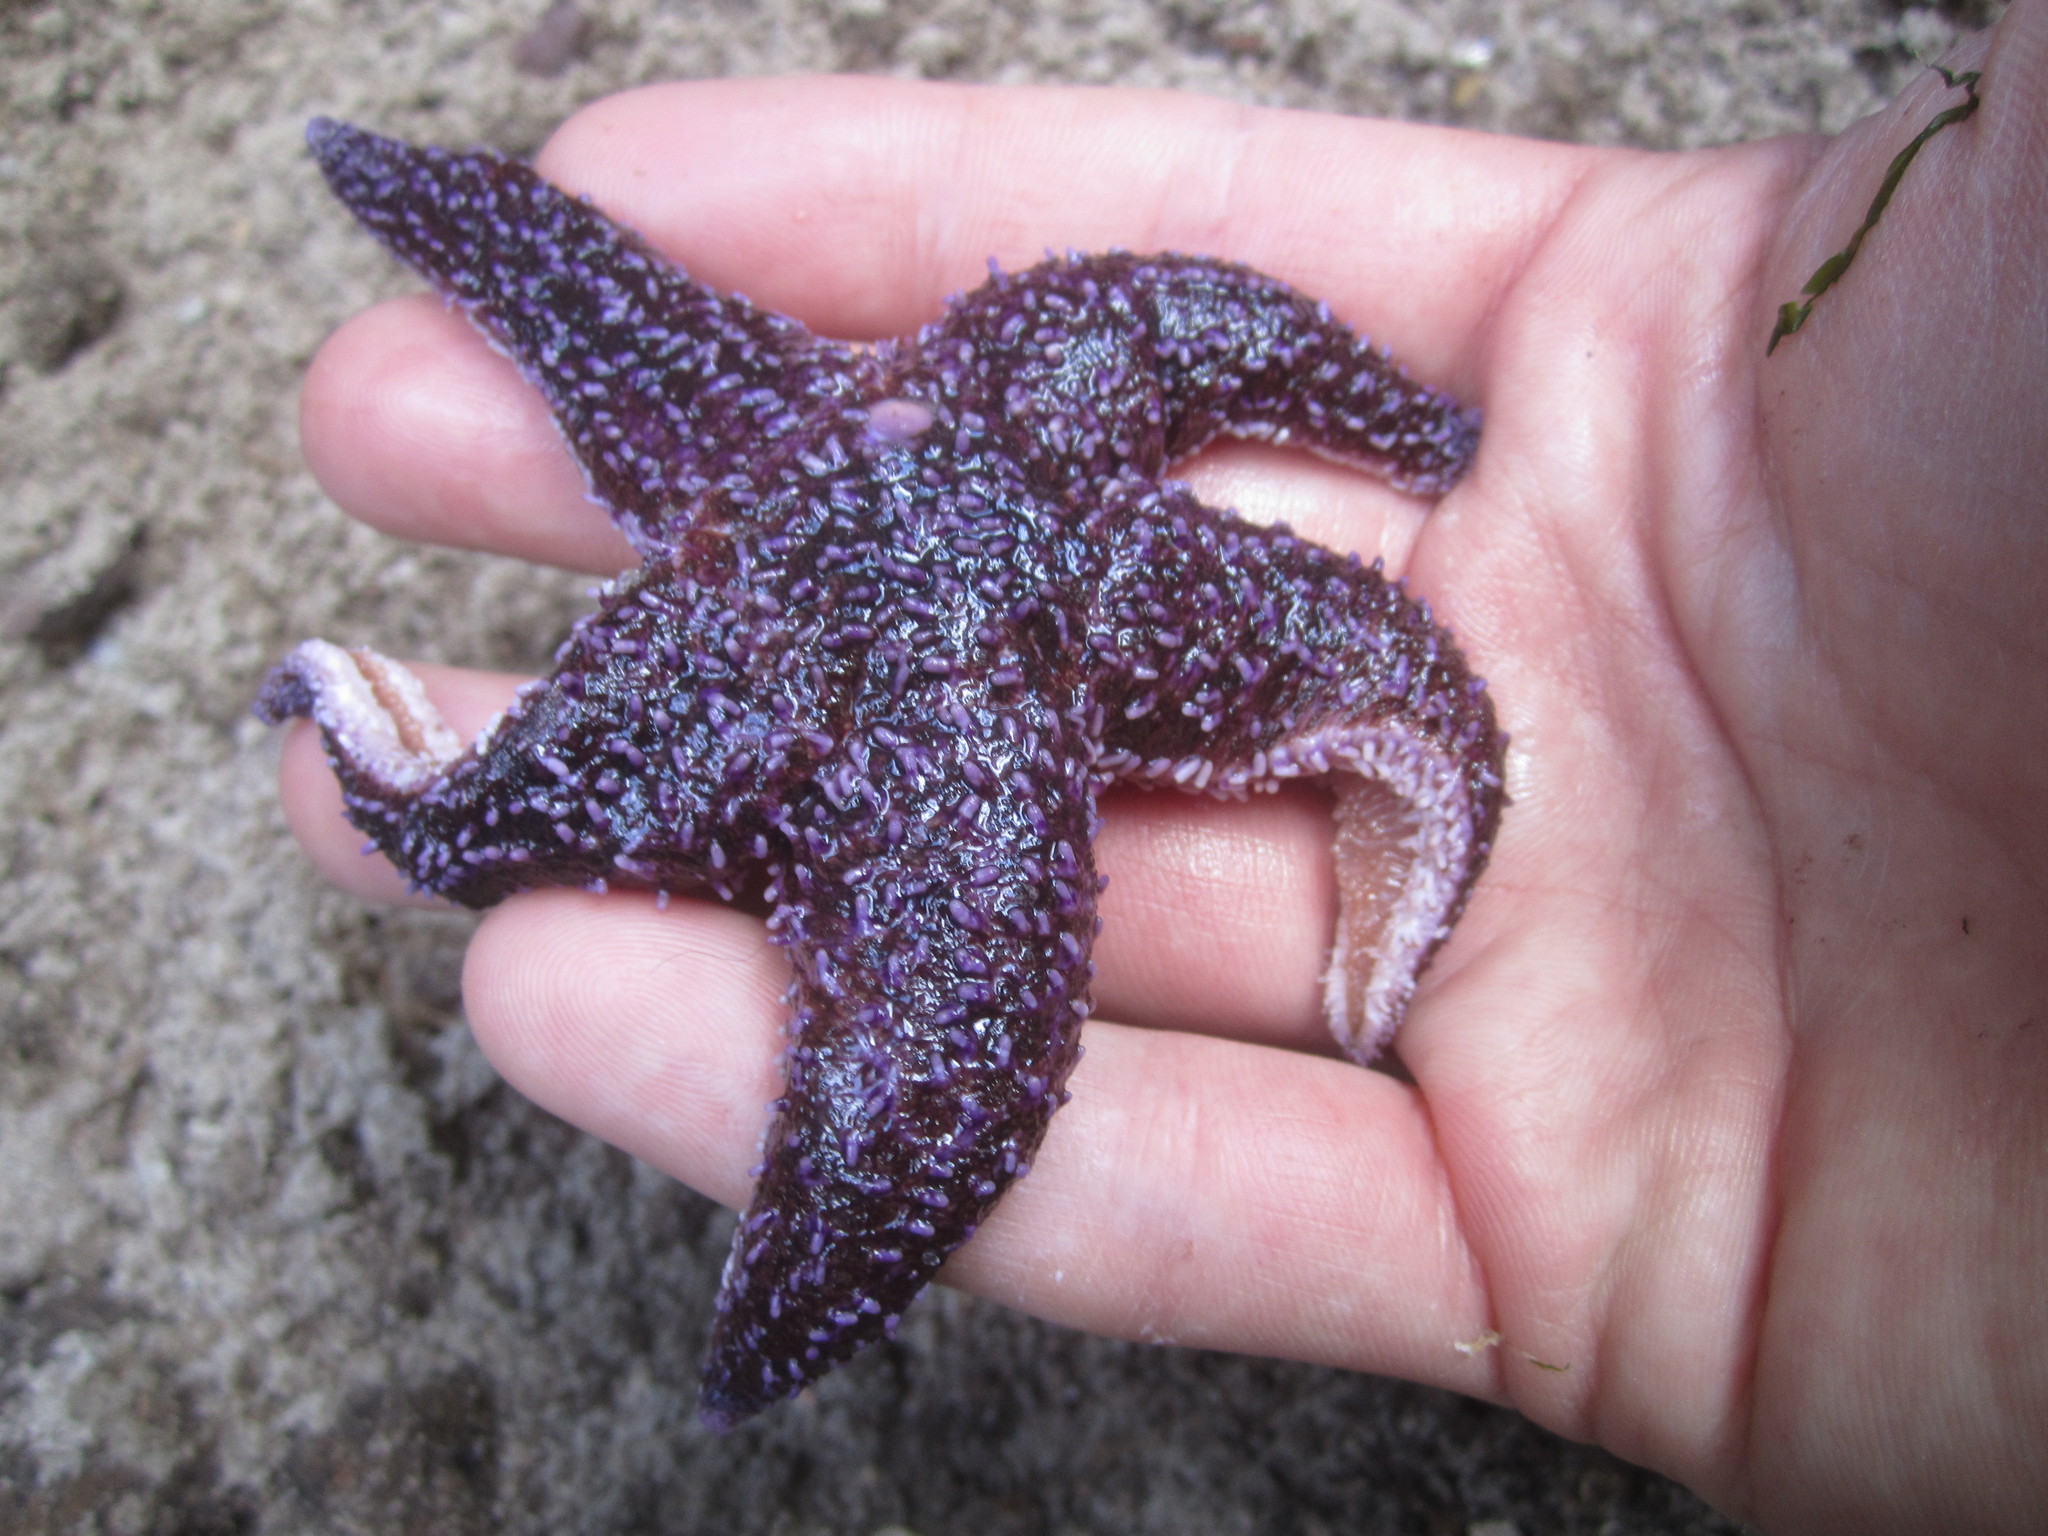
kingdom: Animalia
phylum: Echinodermata
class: Asteroidea
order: Forcipulatida
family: Asteriidae
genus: Asterias
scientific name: Asterias rubens
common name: Common starfish
